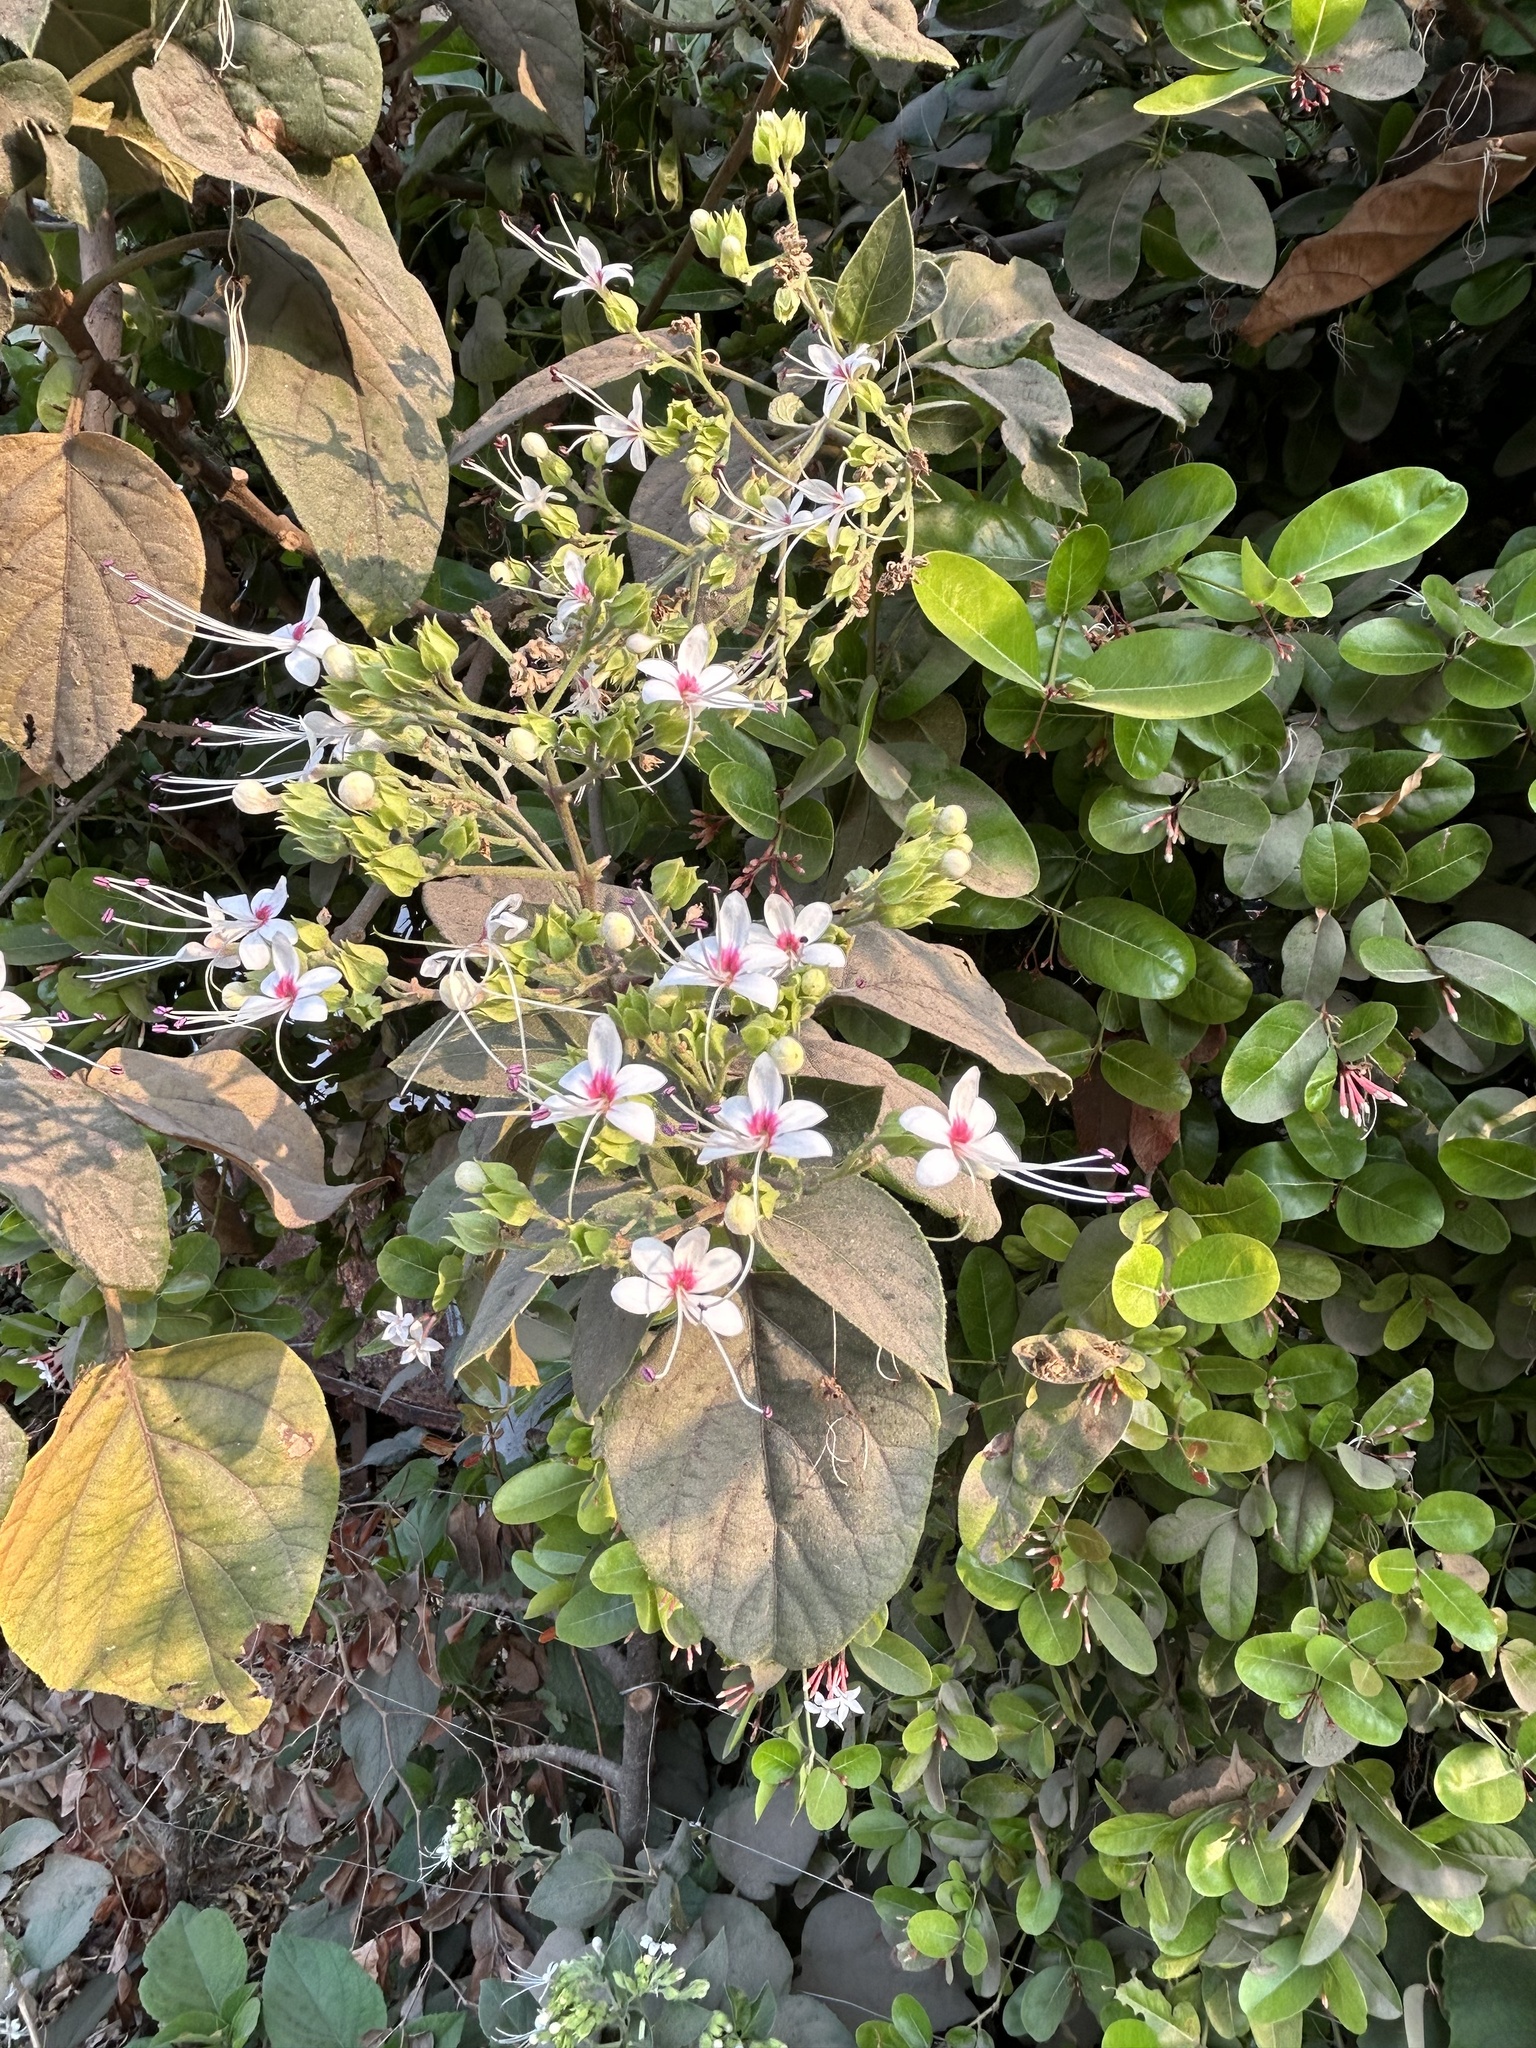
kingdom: Plantae
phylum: Tracheophyta
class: Magnoliopsida
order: Lamiales
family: Lamiaceae
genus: Clerodendrum
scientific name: Clerodendrum infortunatum
